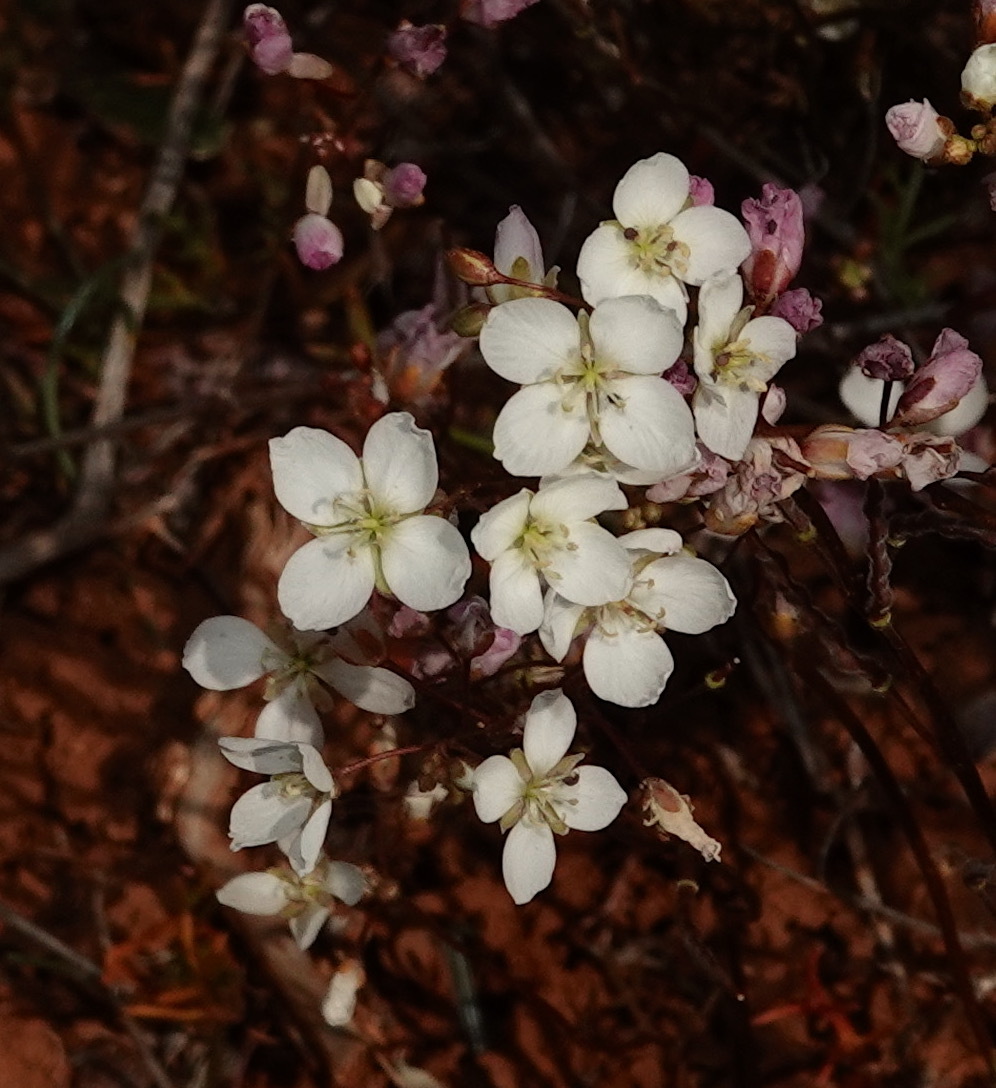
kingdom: Plantae
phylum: Tracheophyta
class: Magnoliopsida
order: Brassicales
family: Brassicaceae
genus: Heliophila
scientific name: Heliophila pubescens
